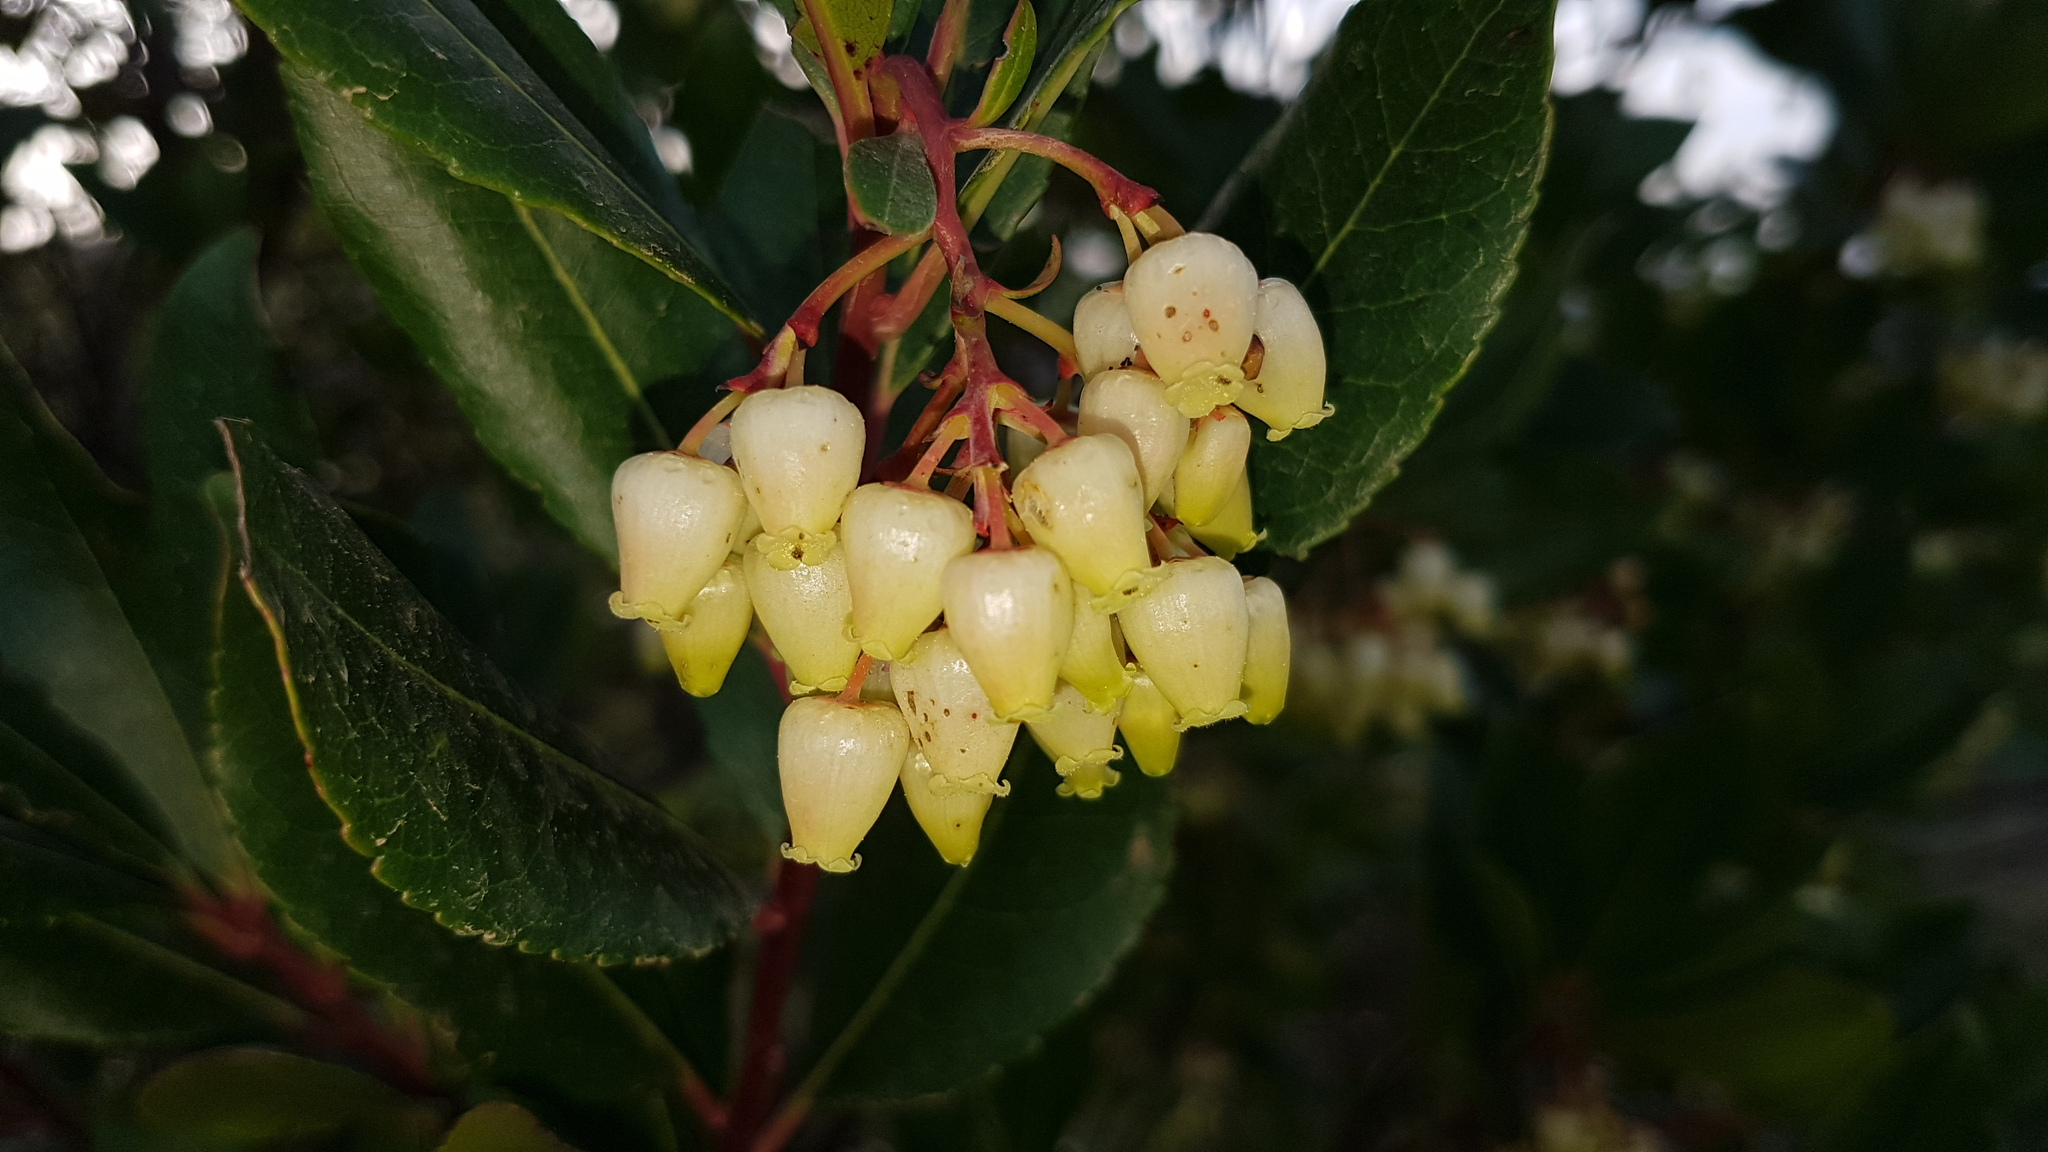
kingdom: Plantae
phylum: Tracheophyta
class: Magnoliopsida
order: Ericales
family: Ericaceae
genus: Arbutus
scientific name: Arbutus unedo
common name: Strawberry-tree
